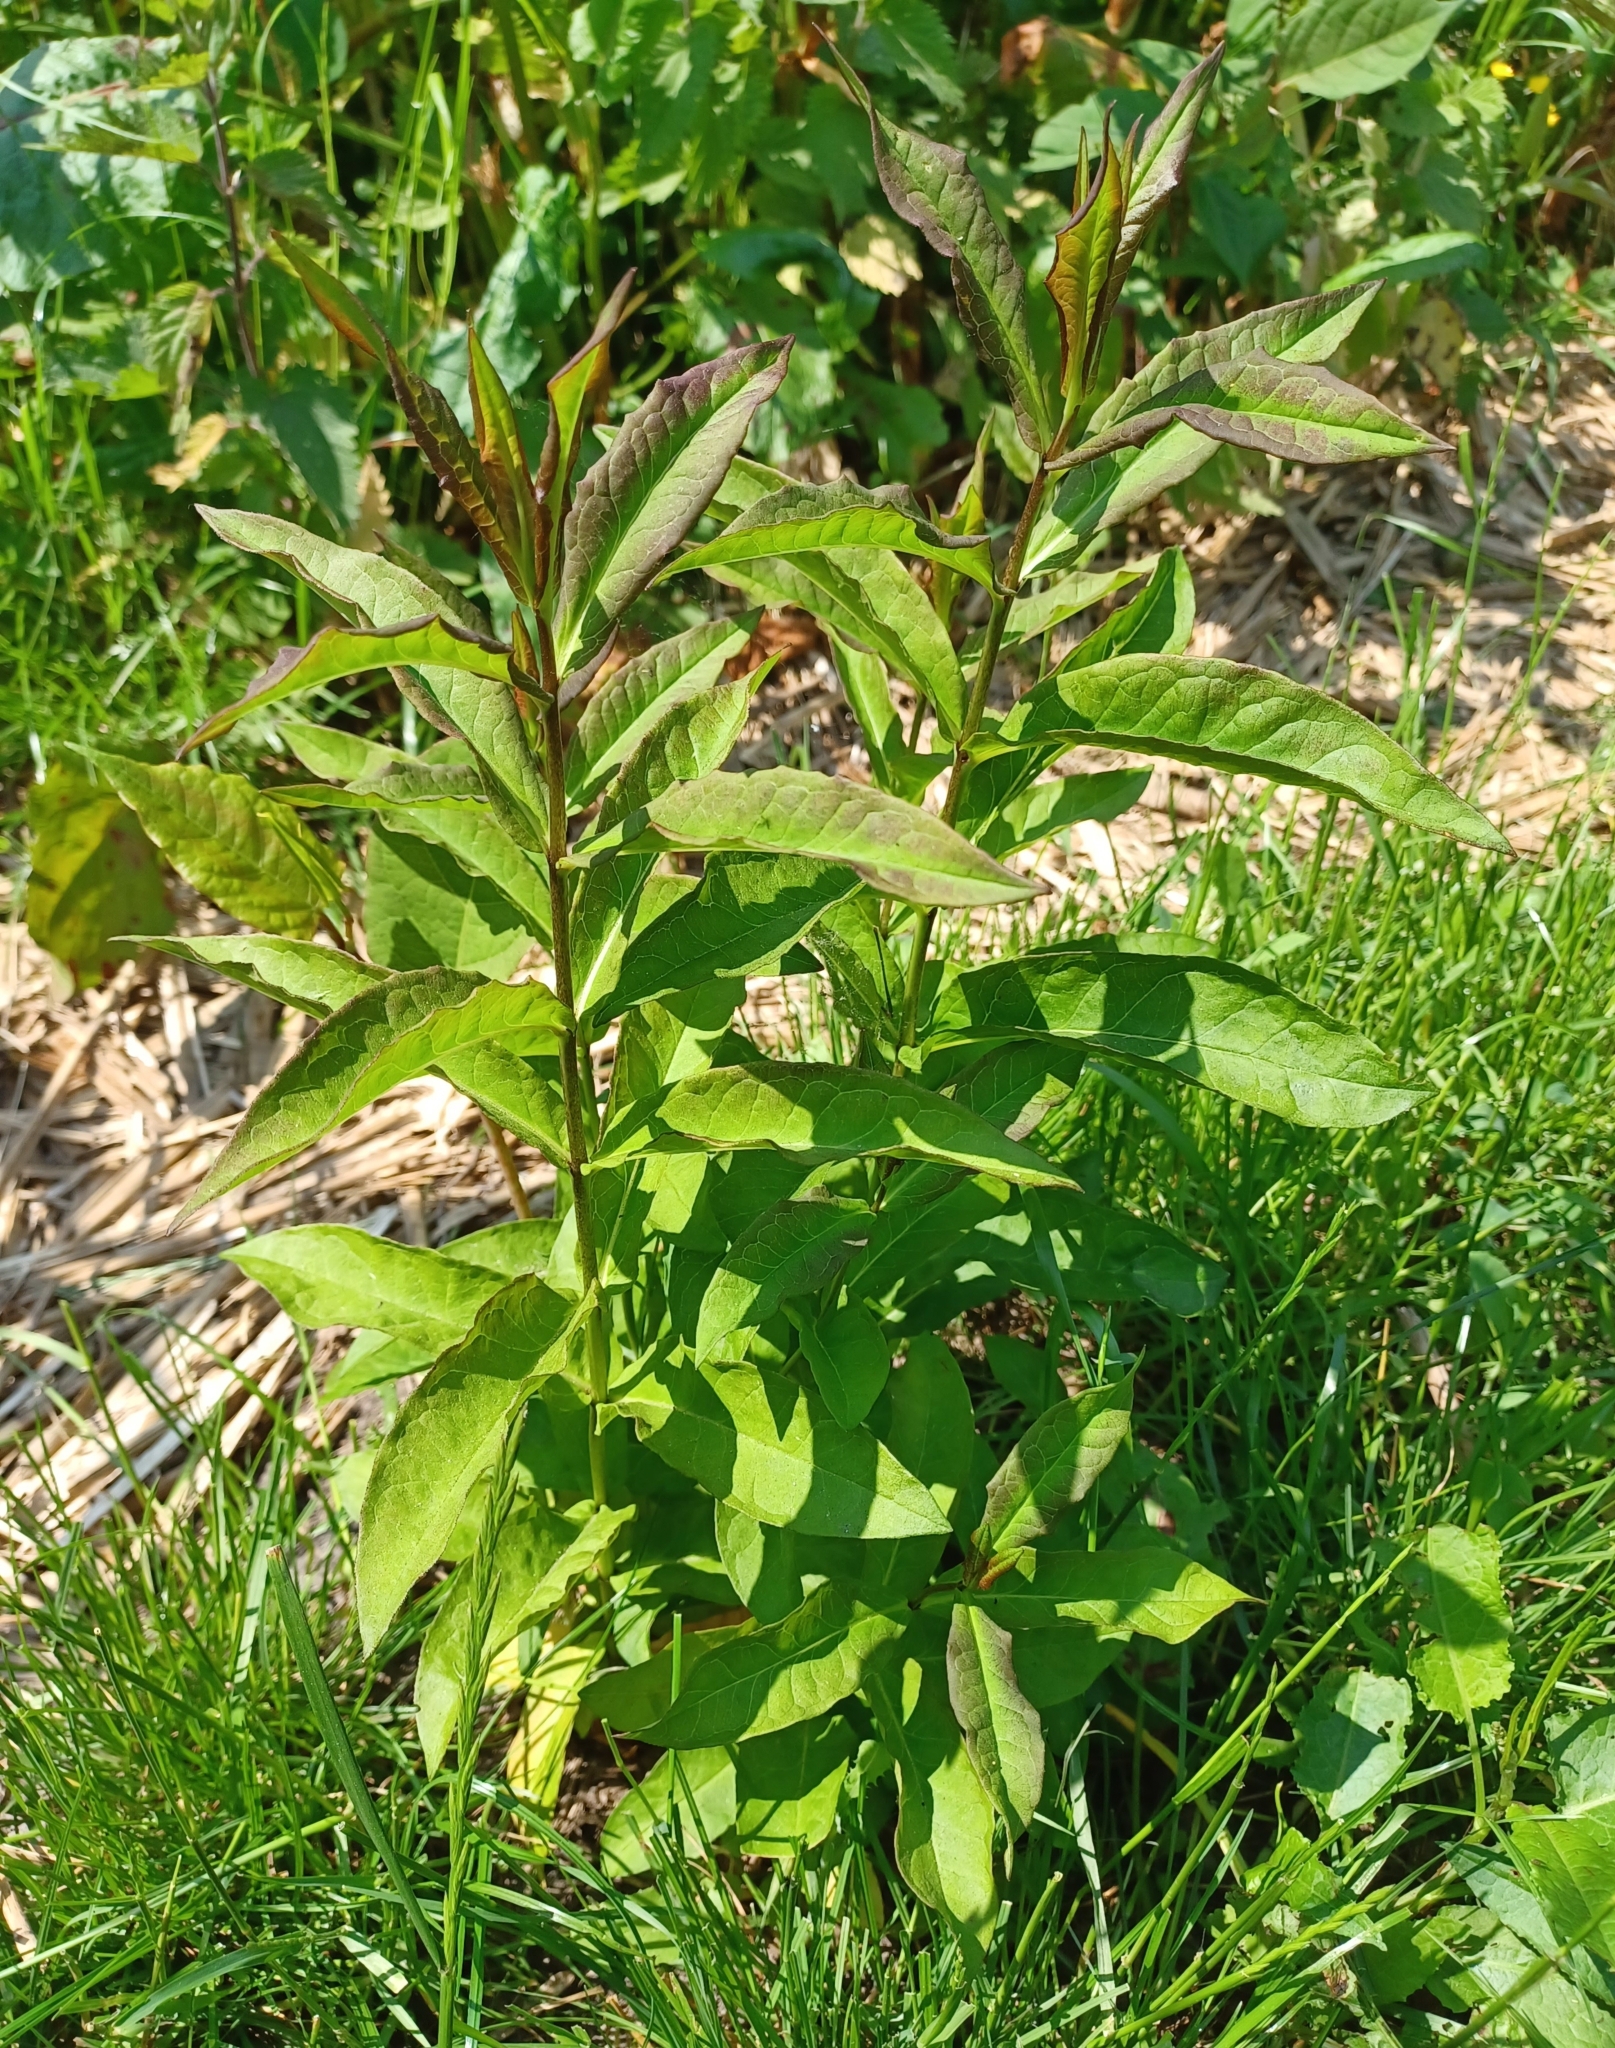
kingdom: Plantae
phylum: Tracheophyta
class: Magnoliopsida
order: Ericales
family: Polemoniaceae
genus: Phlox
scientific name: Phlox paniculata
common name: Fall phlox
